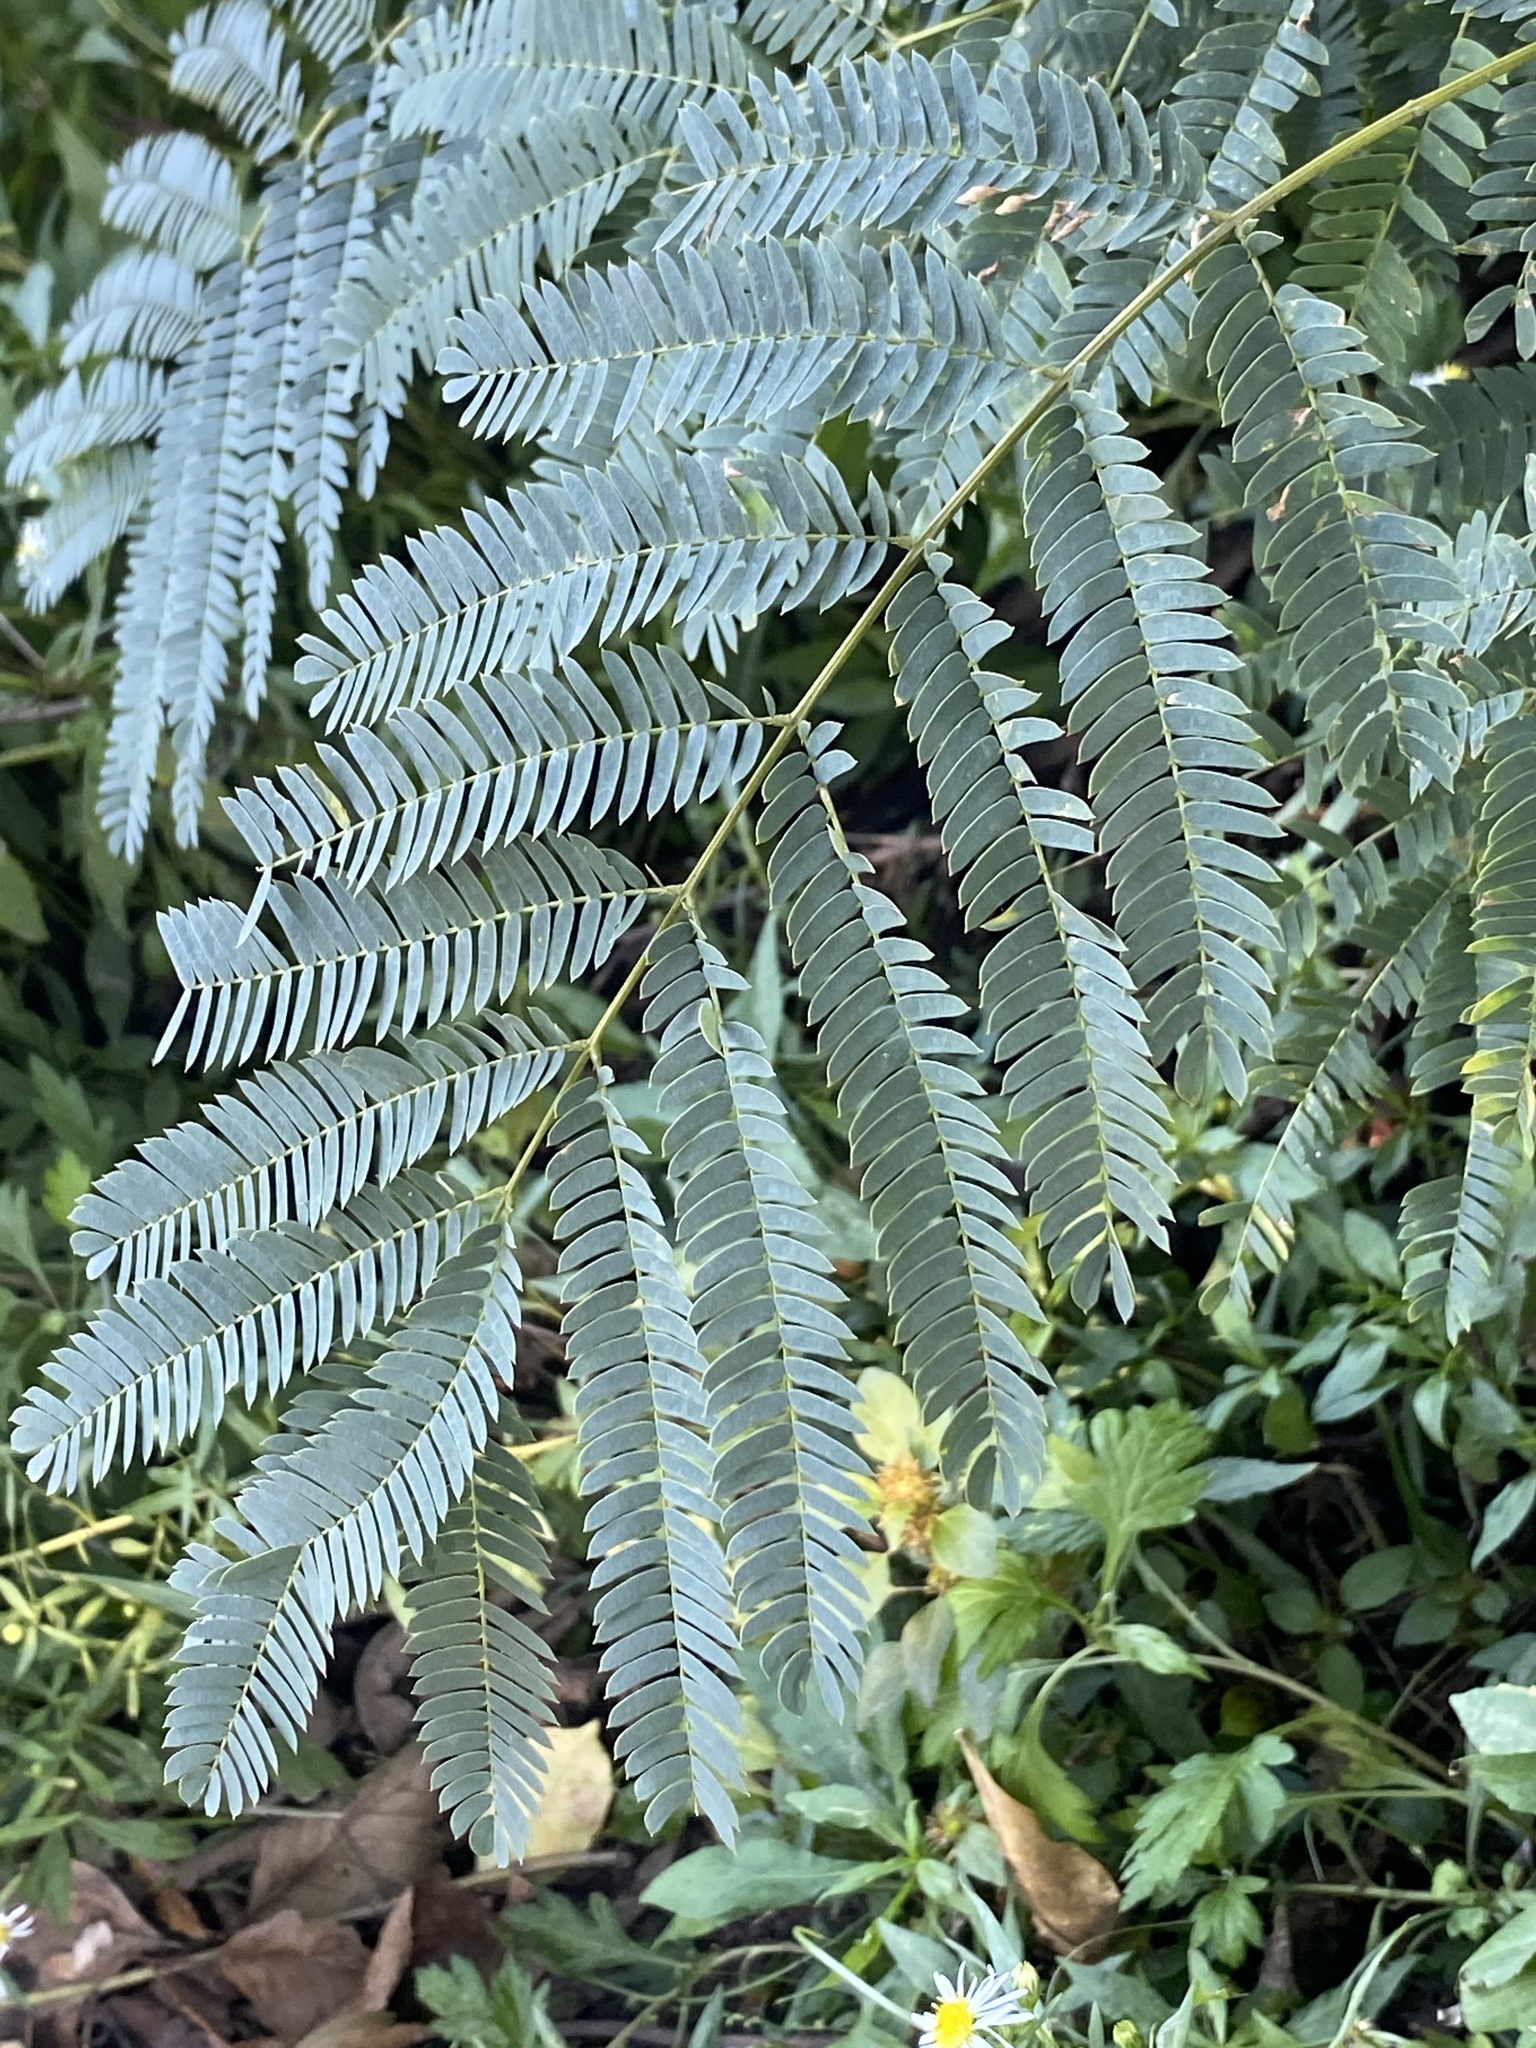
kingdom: Plantae
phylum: Tracheophyta
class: Magnoliopsida
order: Fabales
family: Fabaceae
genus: Albizia
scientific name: Albizia julibrissin
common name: Silktree
